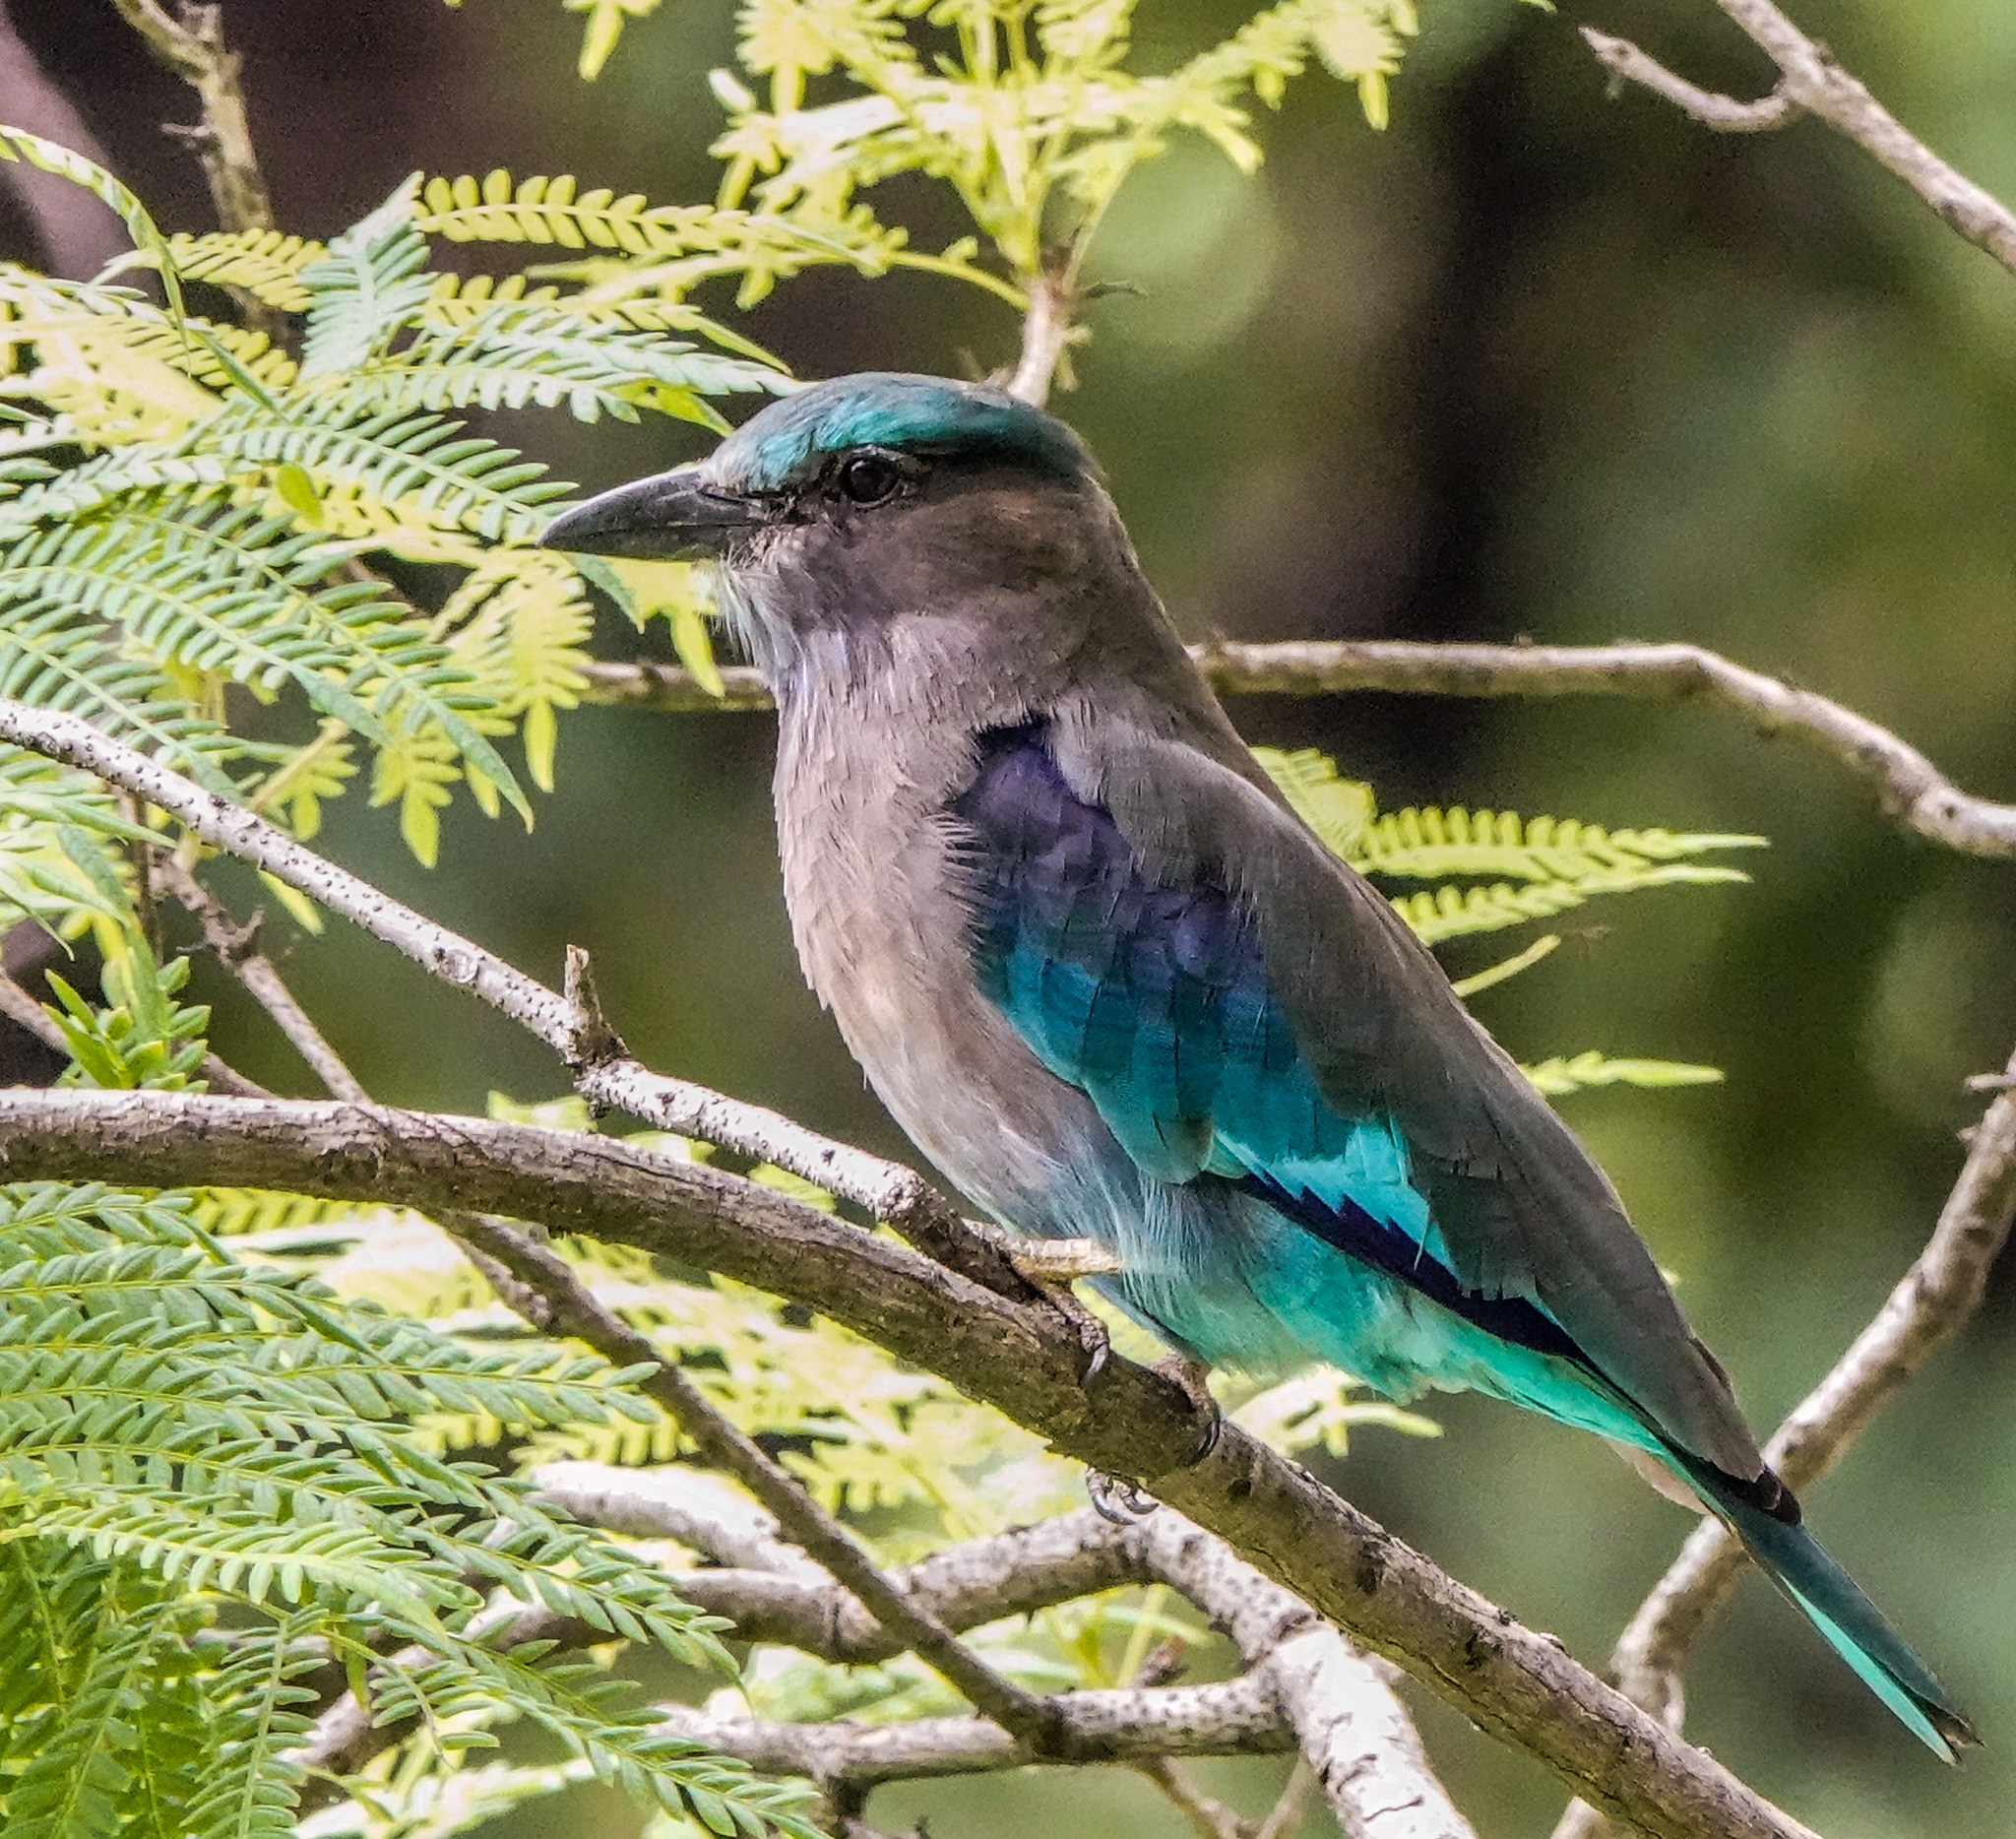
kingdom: Animalia
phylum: Chordata
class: Aves
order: Coraciiformes
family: Coraciidae
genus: Coracias
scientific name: Coracias affinis
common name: Indochinese roller
